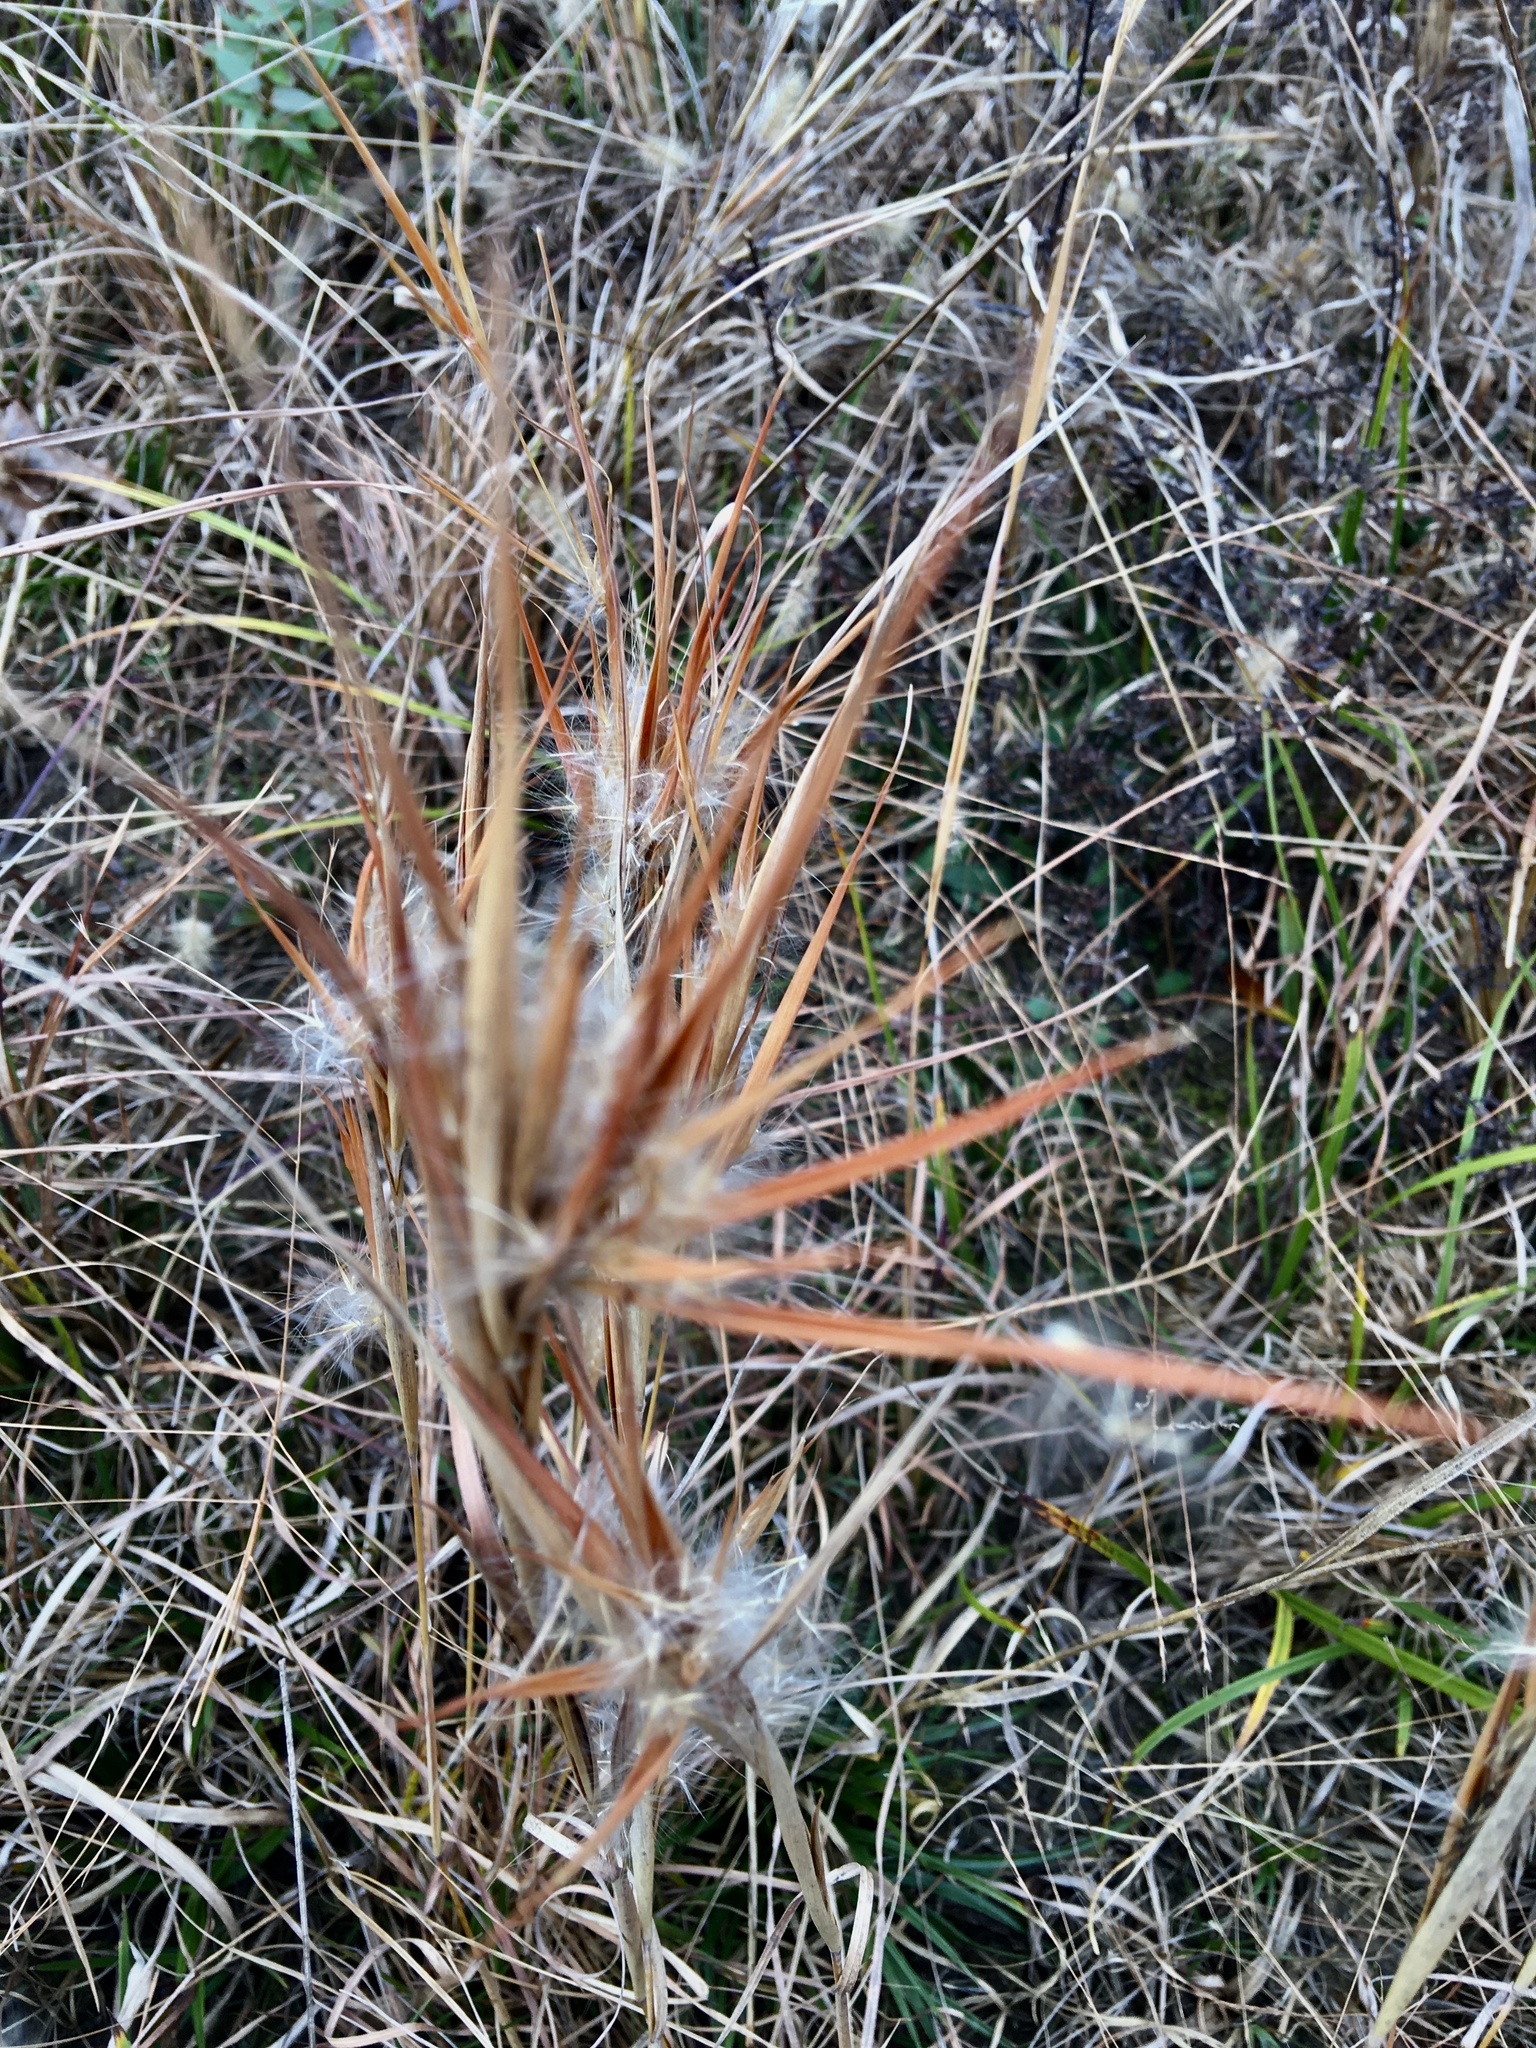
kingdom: Plantae
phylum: Tracheophyta
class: Liliopsida
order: Poales
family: Poaceae
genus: Andropogon
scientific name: Andropogon gyrans
